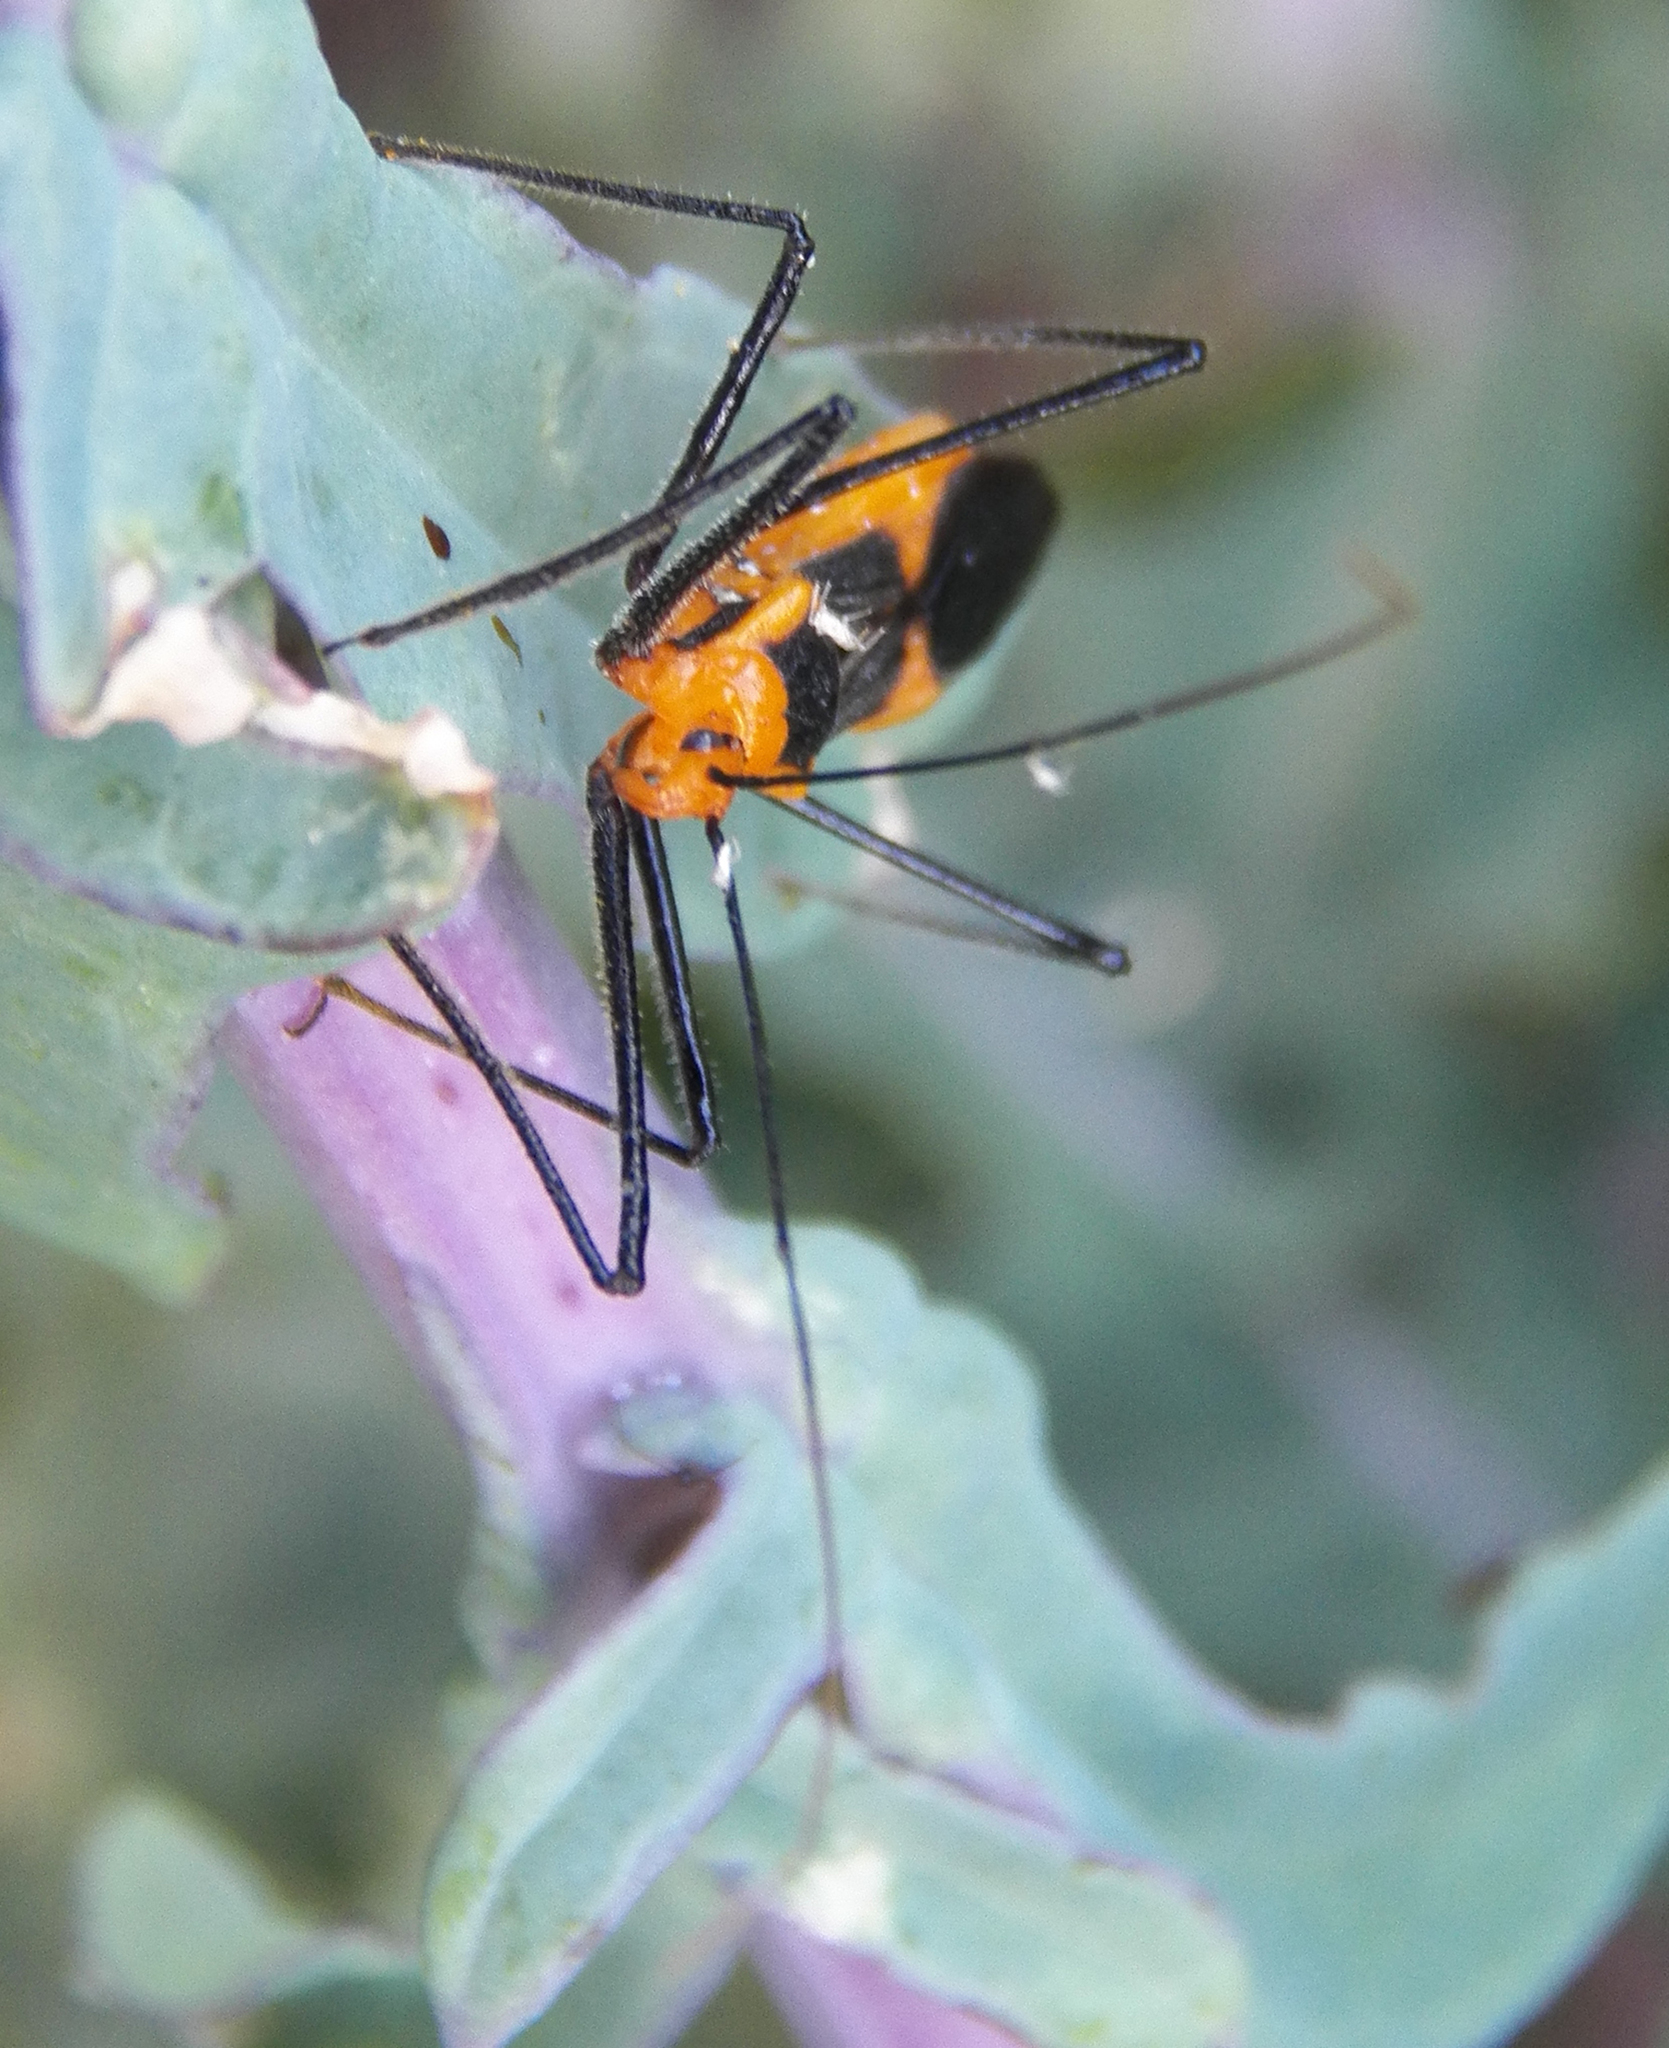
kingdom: Animalia
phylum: Arthropoda
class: Insecta
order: Hemiptera
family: Reduviidae
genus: Zelus
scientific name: Zelus longipes
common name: Milkweed assassin bug
